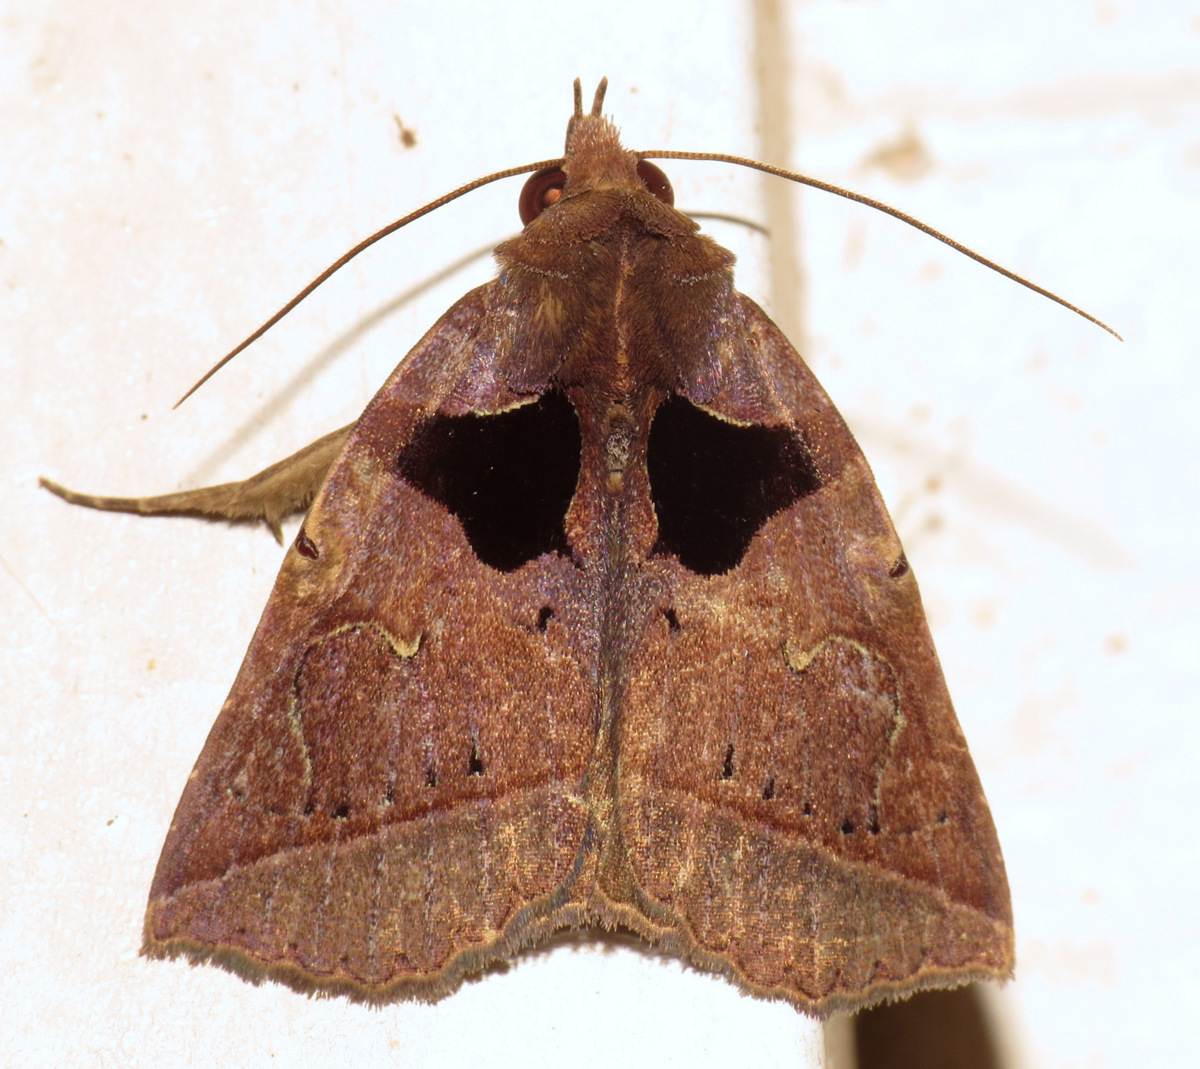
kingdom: Animalia
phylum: Arthropoda
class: Insecta
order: Lepidoptera
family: Erebidae
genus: Athyrma
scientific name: Athyrma tuberosa
